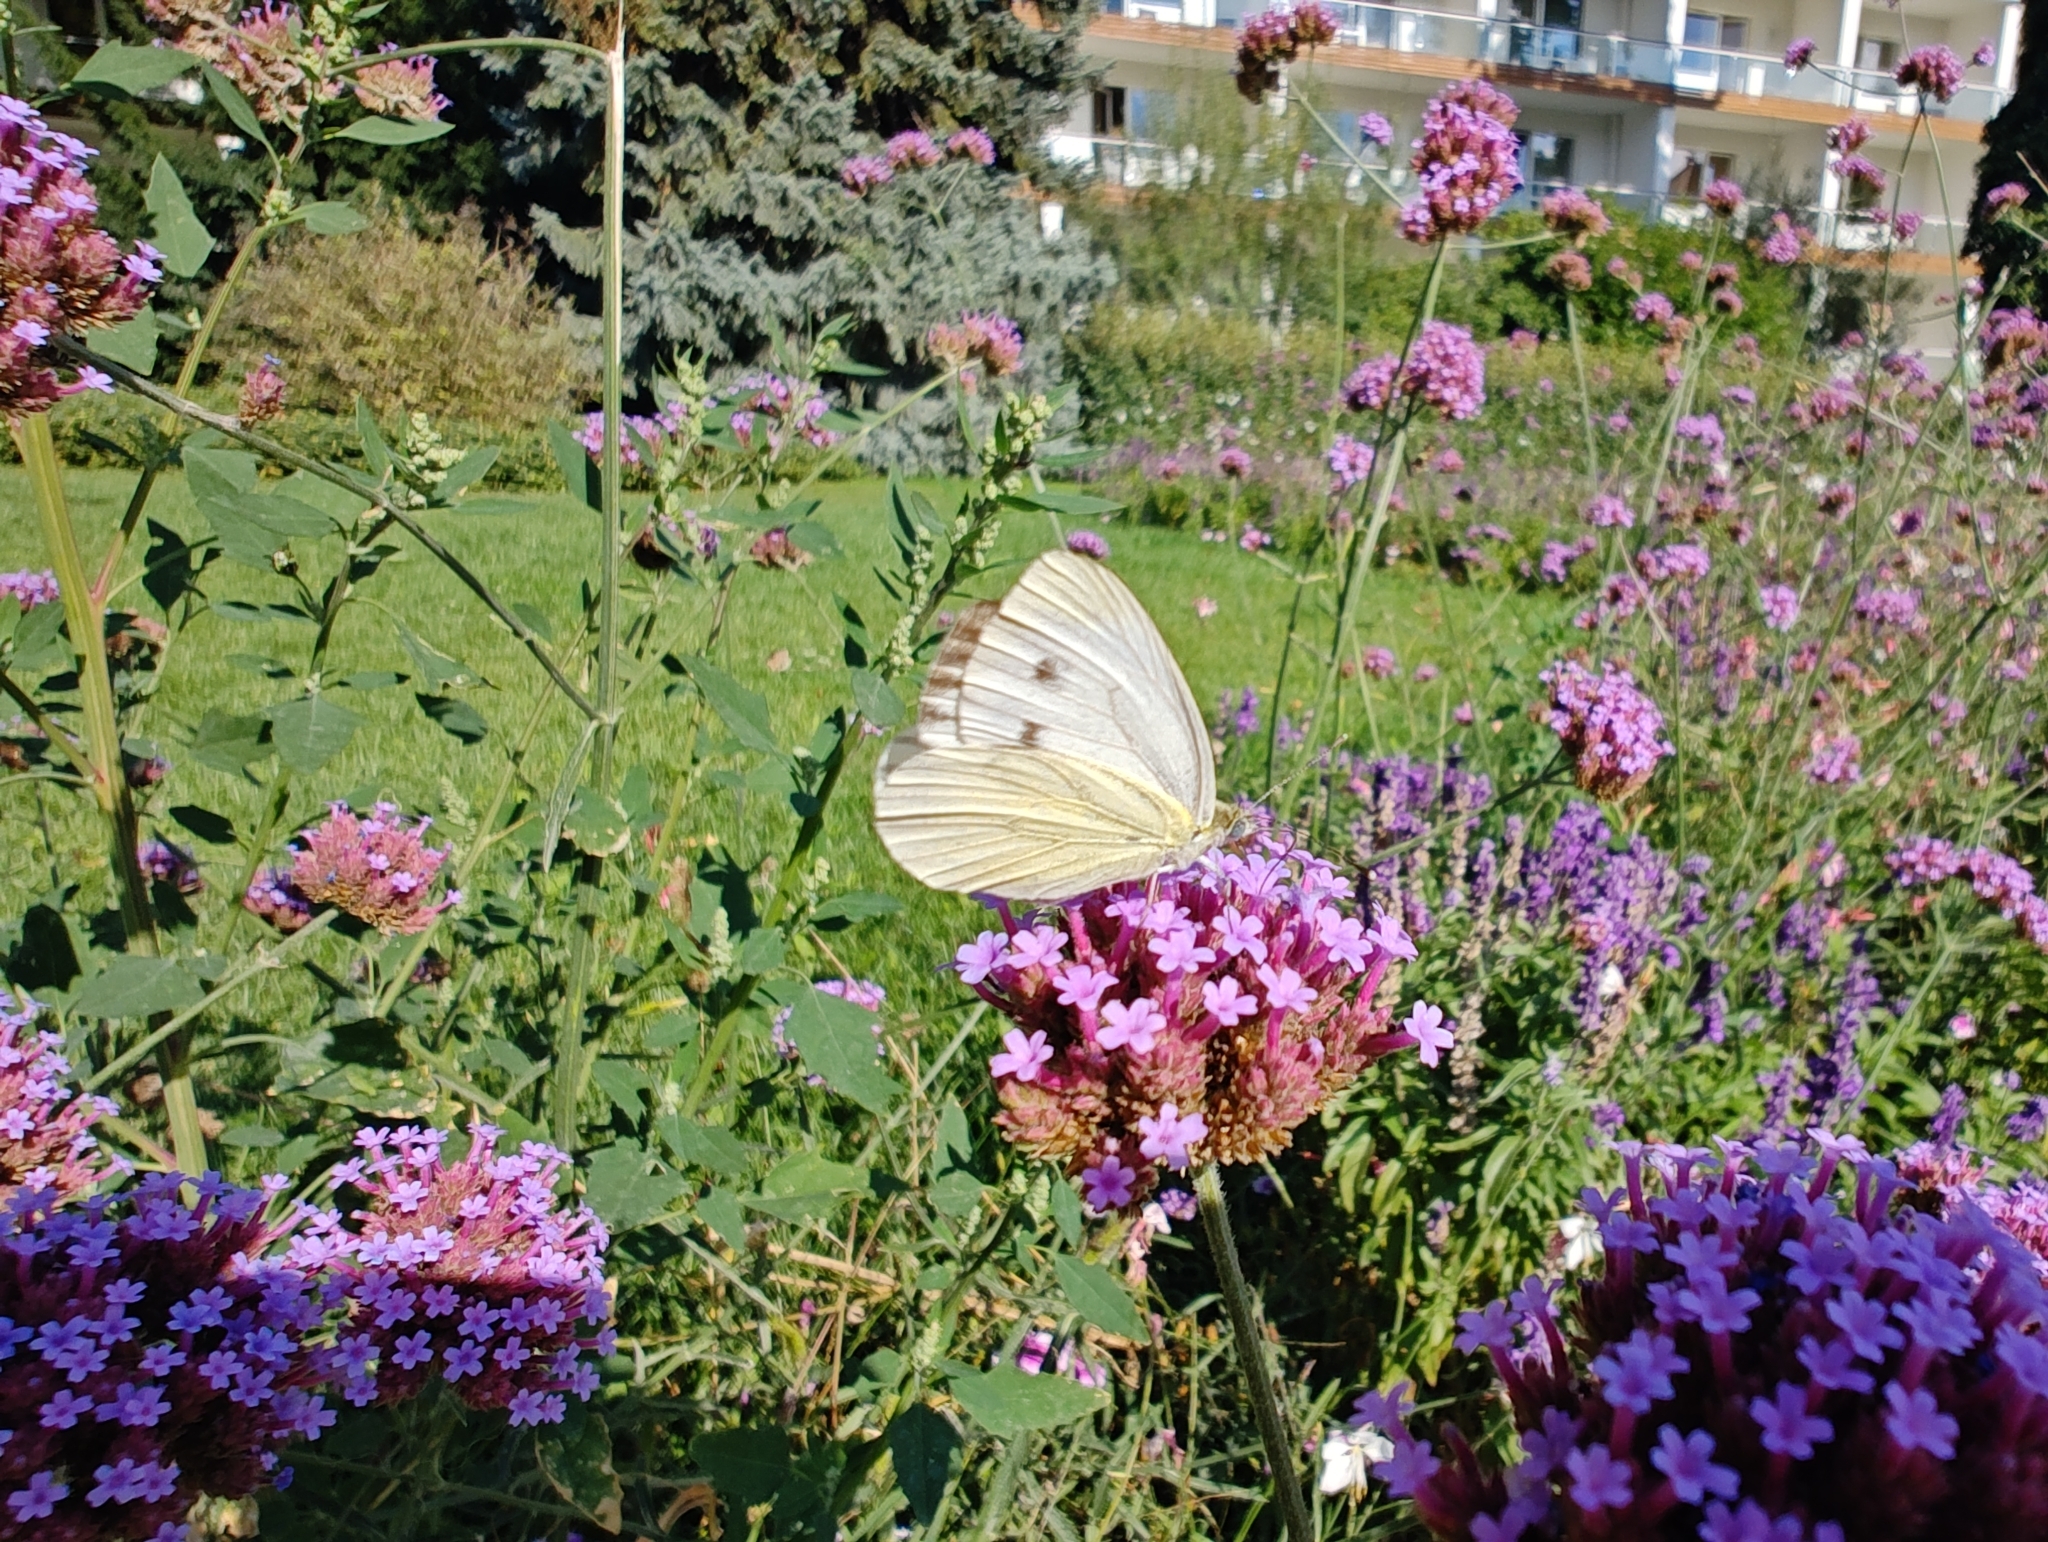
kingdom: Animalia
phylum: Arthropoda
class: Insecta
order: Lepidoptera
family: Pieridae
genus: Pieris
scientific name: Pieris napi
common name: Green-veined white
